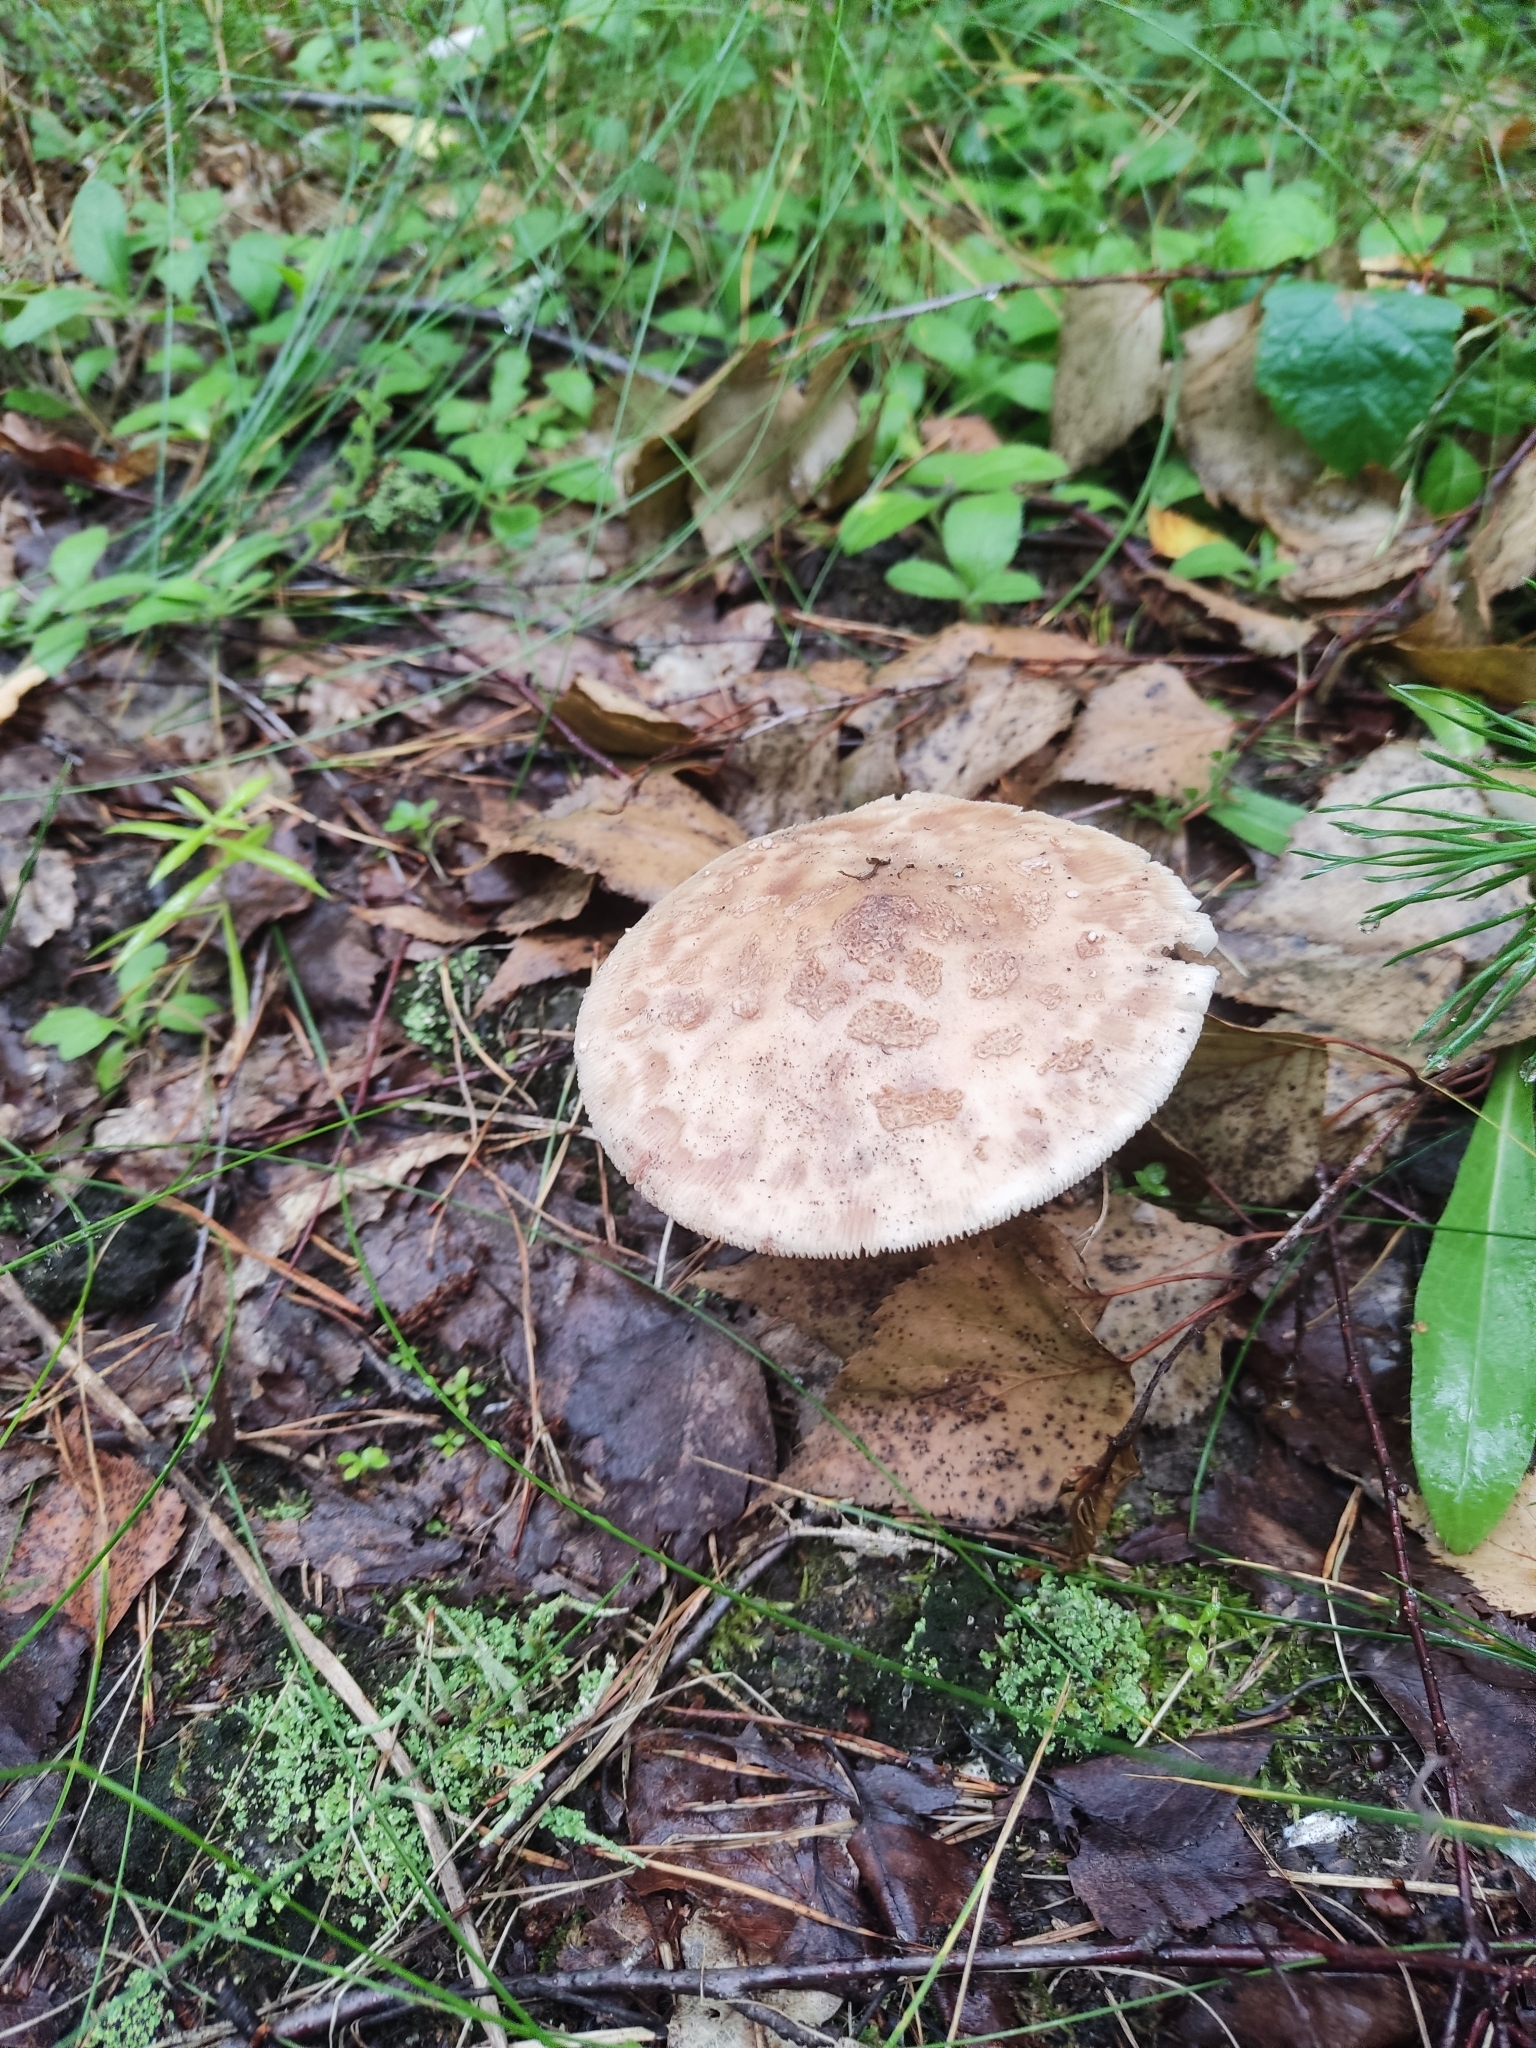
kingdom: Fungi
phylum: Basidiomycota
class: Agaricomycetes
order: Agaricales
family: Amanitaceae
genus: Amanita
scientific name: Amanita rubescens
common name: Blusher
